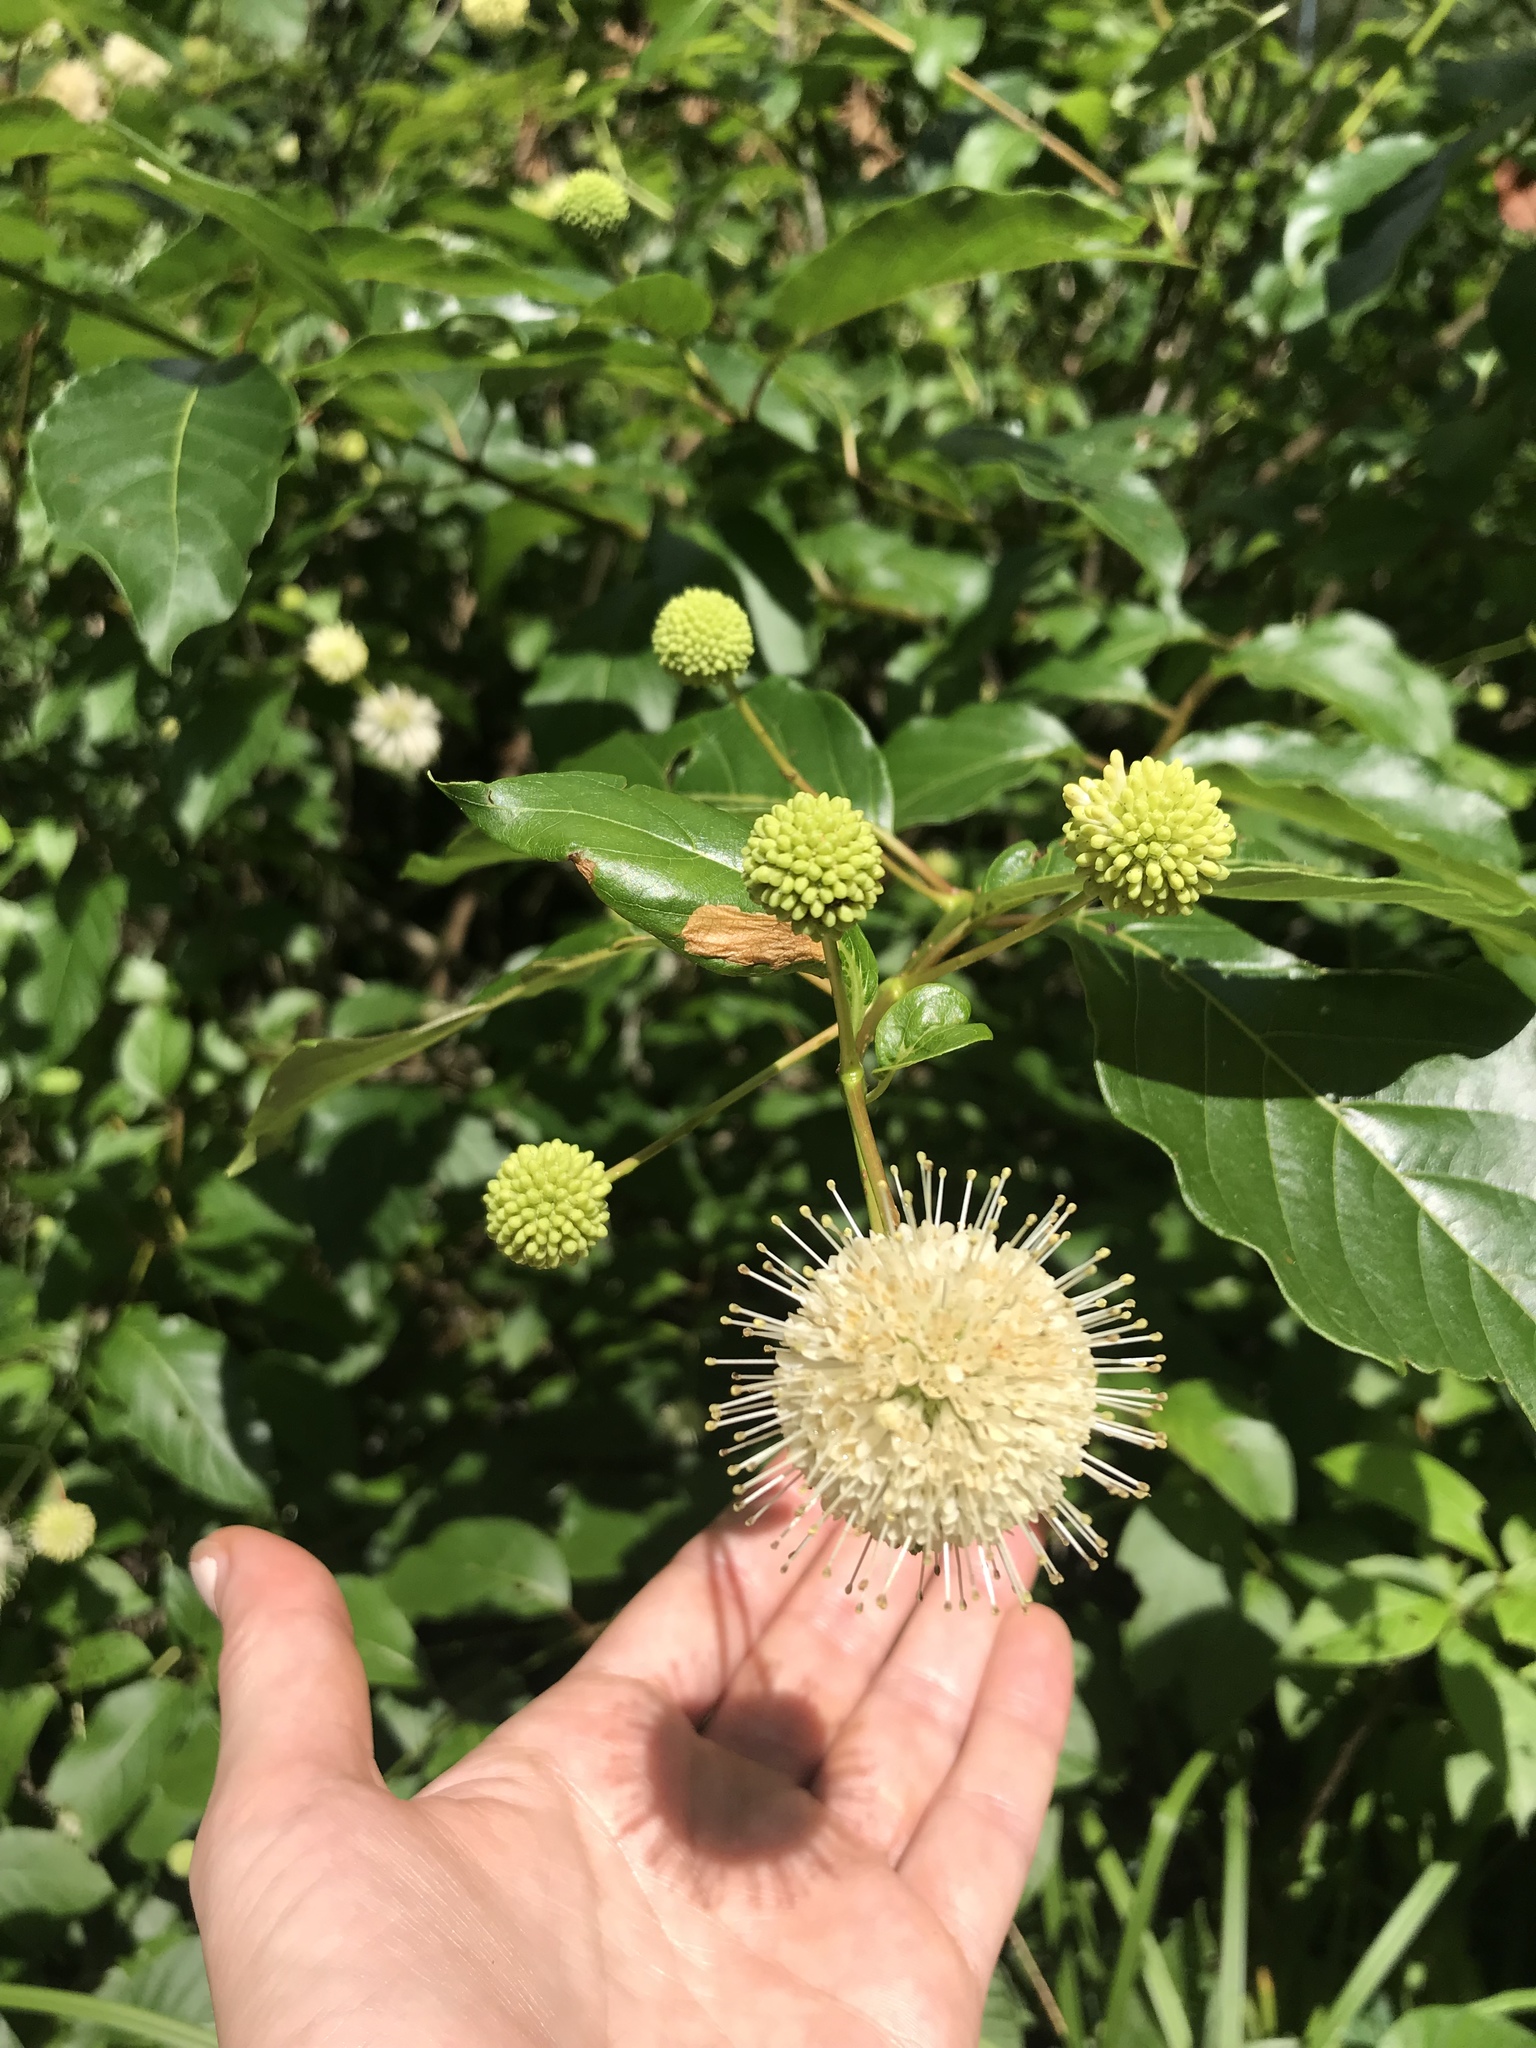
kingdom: Plantae
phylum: Tracheophyta
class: Magnoliopsida
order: Gentianales
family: Rubiaceae
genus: Cephalanthus
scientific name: Cephalanthus occidentalis
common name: Button-willow
